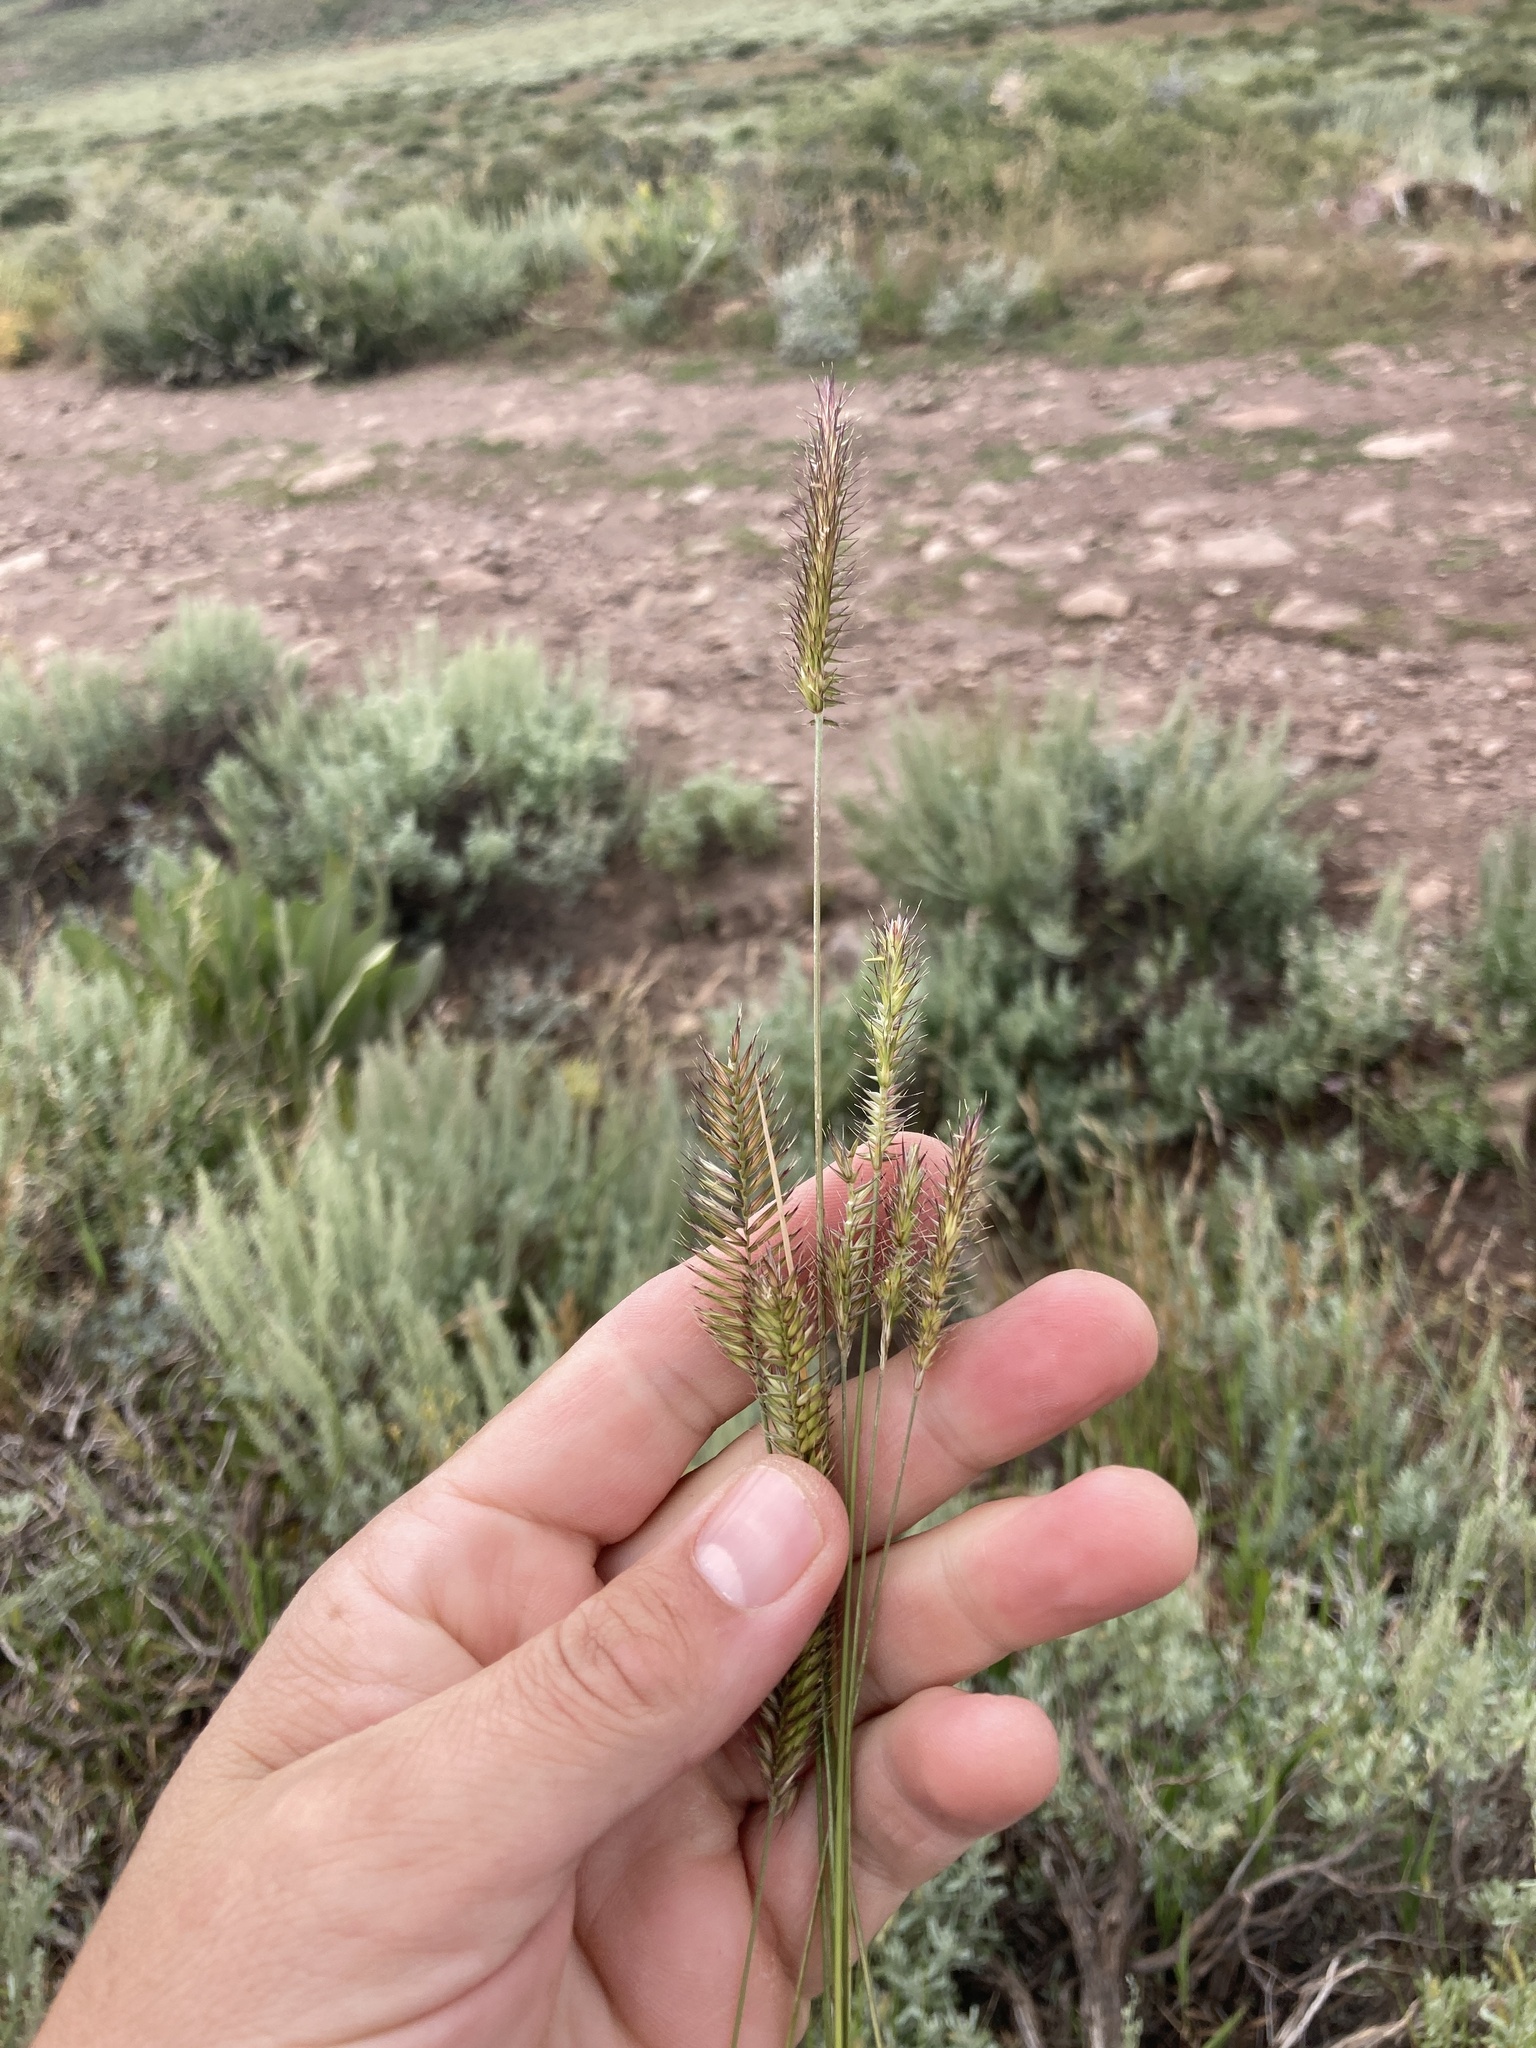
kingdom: Plantae
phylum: Tracheophyta
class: Liliopsida
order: Poales
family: Poaceae
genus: Agropyron
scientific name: Agropyron cristatum
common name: Crested wheatgrass
